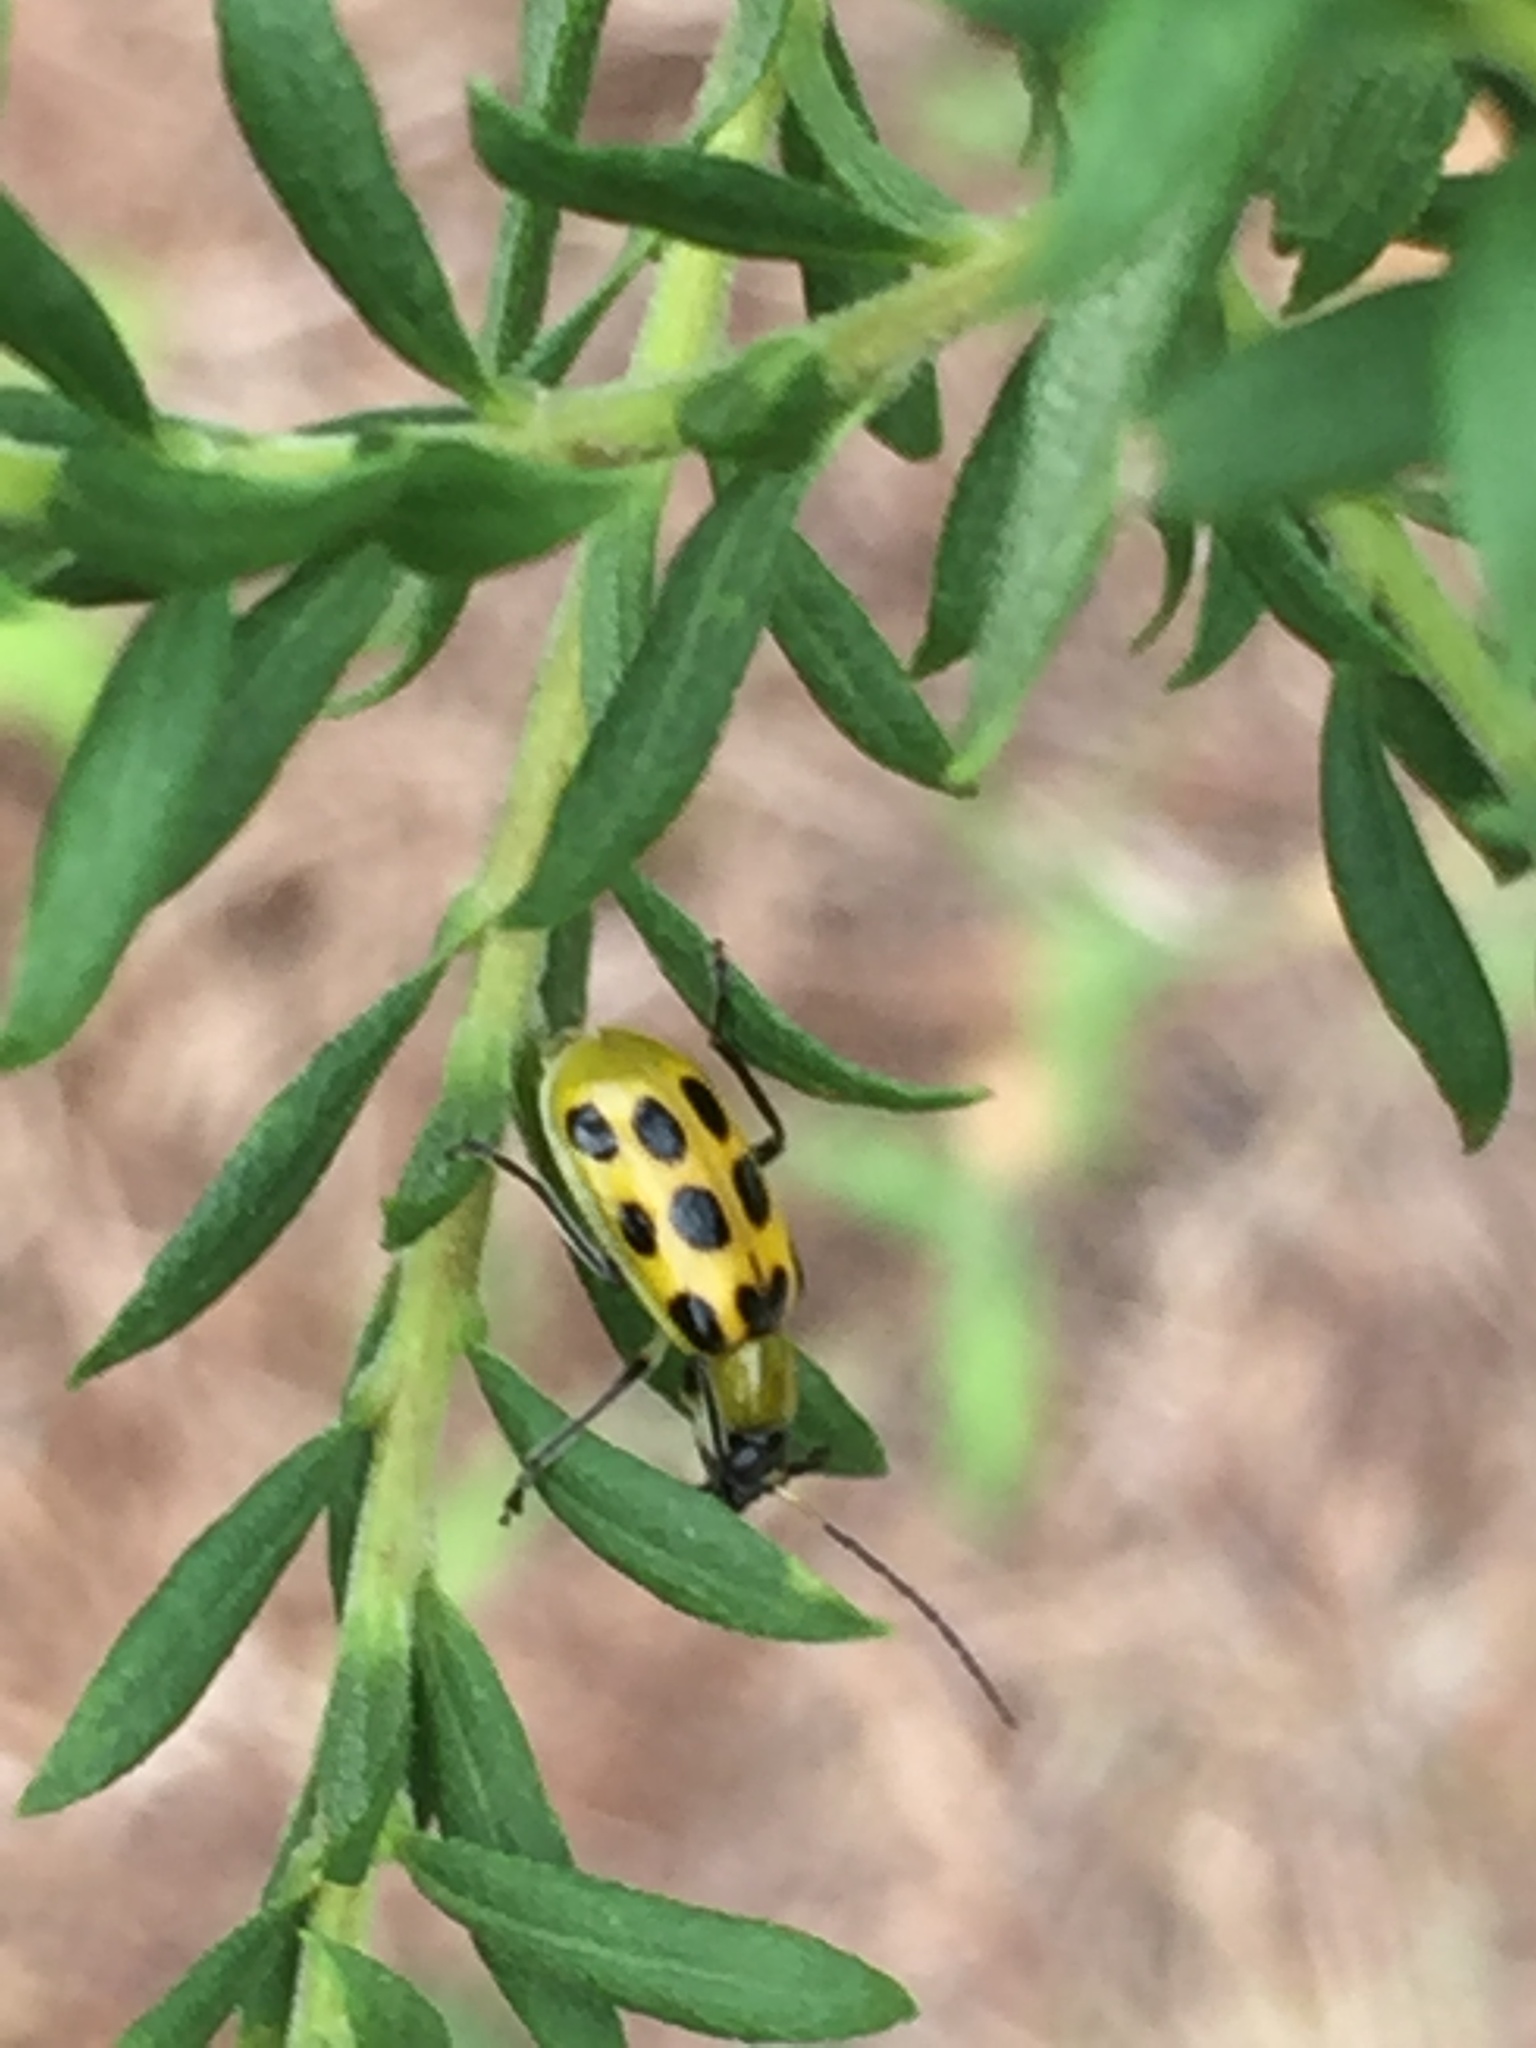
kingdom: Animalia
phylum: Arthropoda
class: Insecta
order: Coleoptera
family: Chrysomelidae
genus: Diabrotica
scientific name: Diabrotica undecimpunctata
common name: Spotted cucumber beetle
